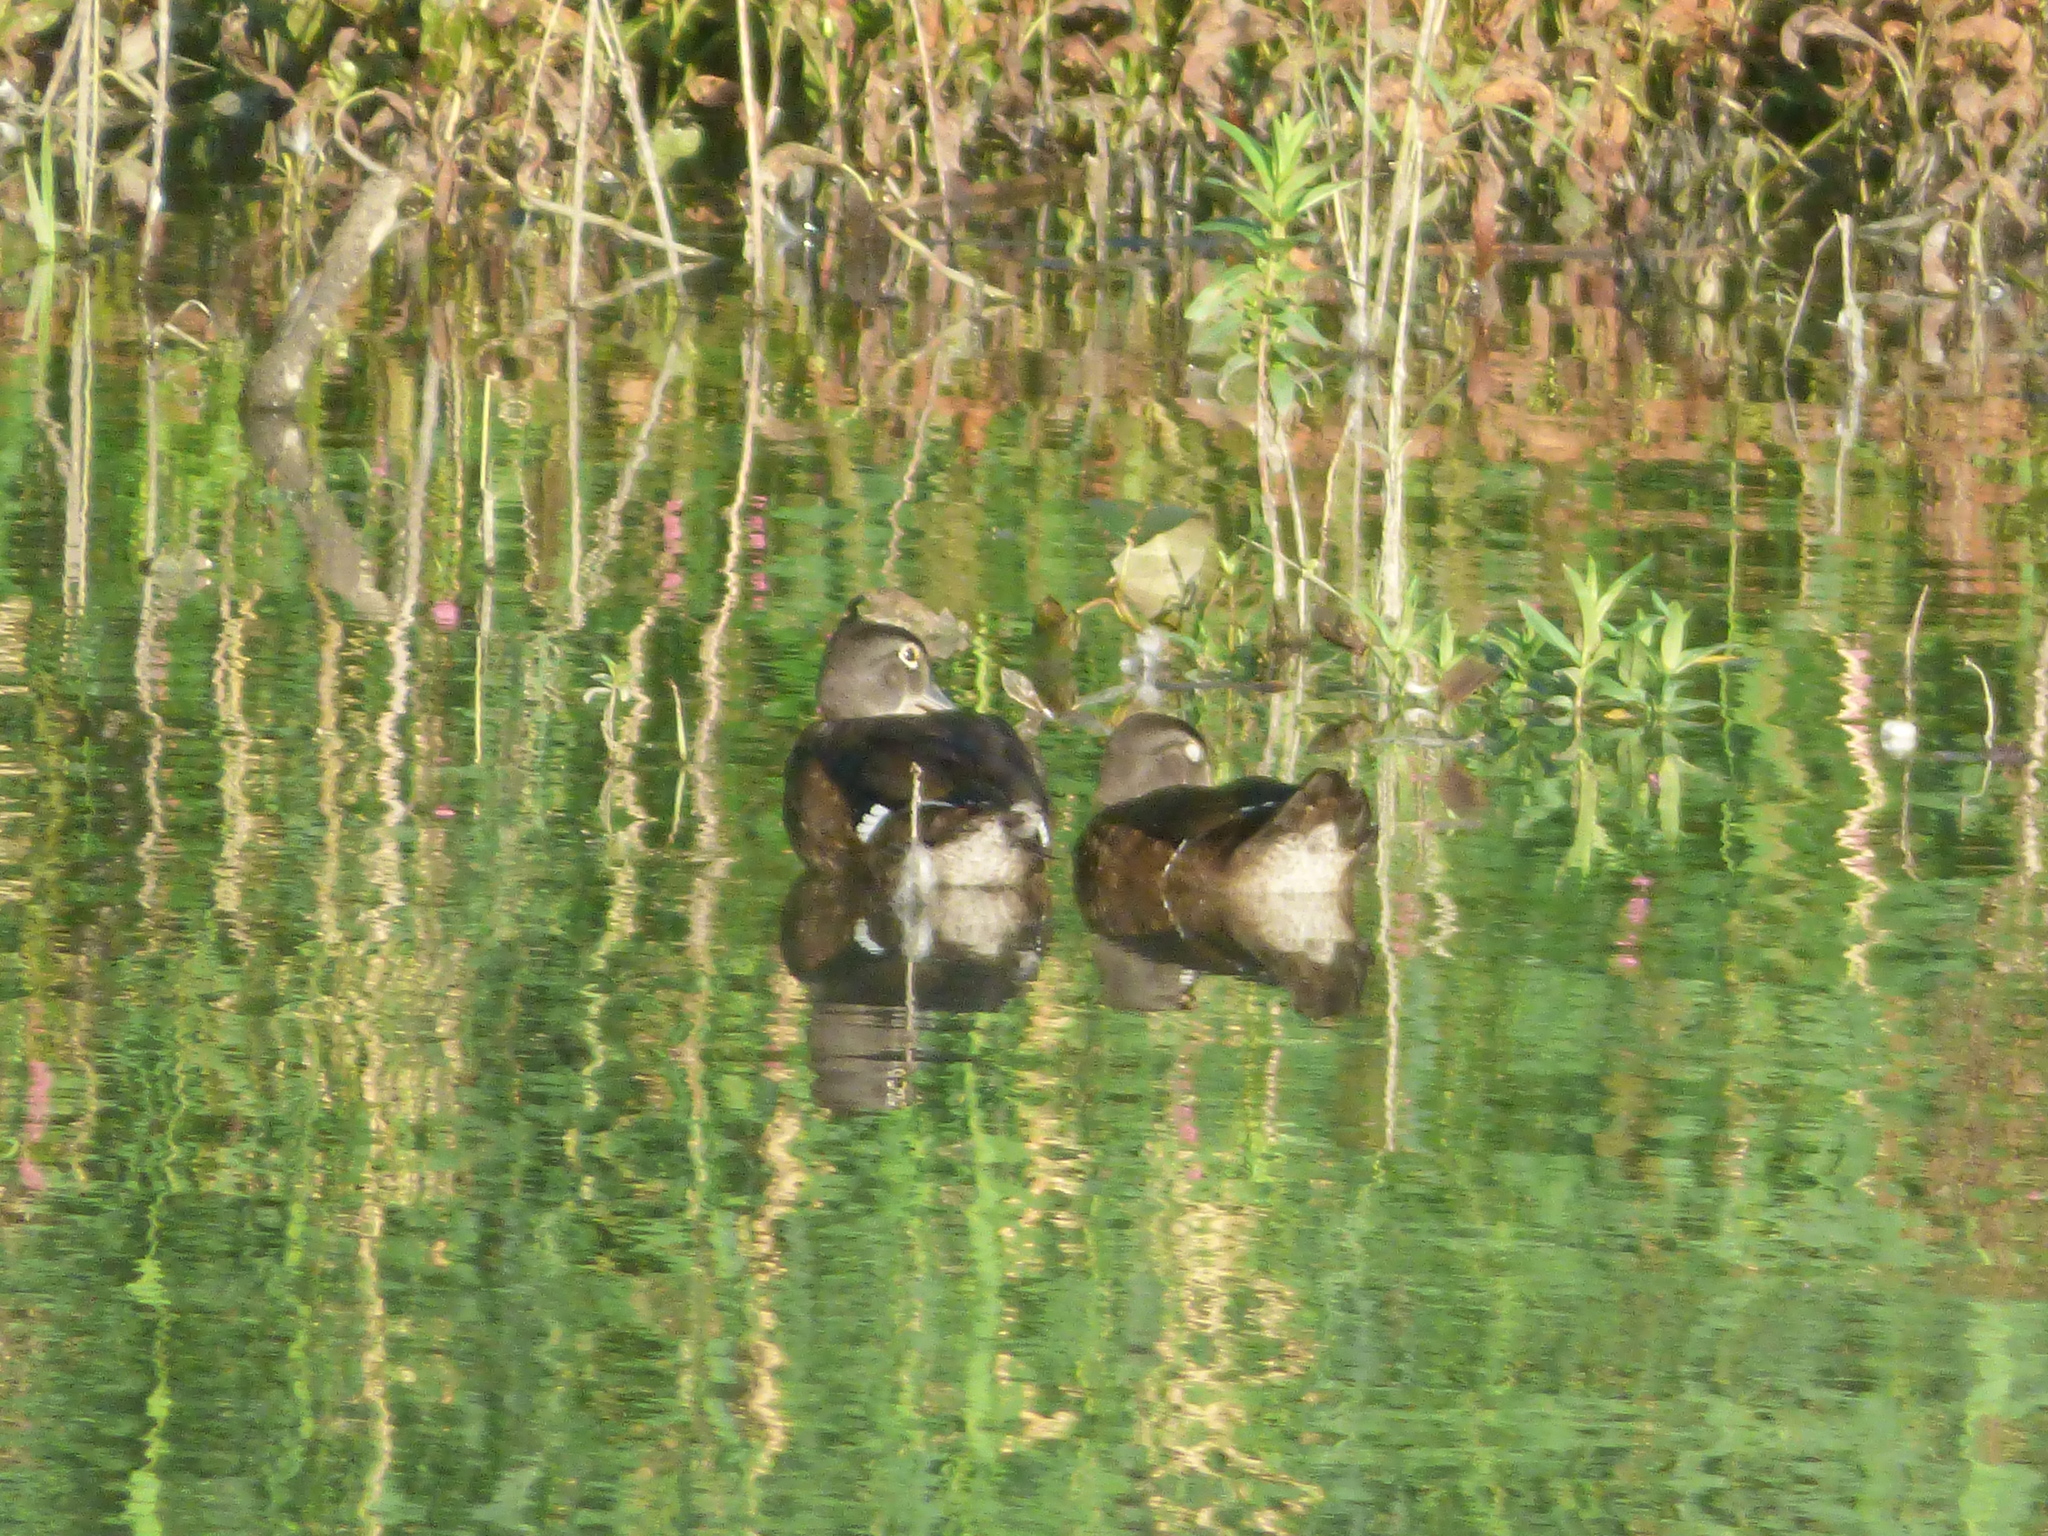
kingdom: Animalia
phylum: Chordata
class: Aves
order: Anseriformes
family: Anatidae
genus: Aix
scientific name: Aix sponsa
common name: Wood duck
